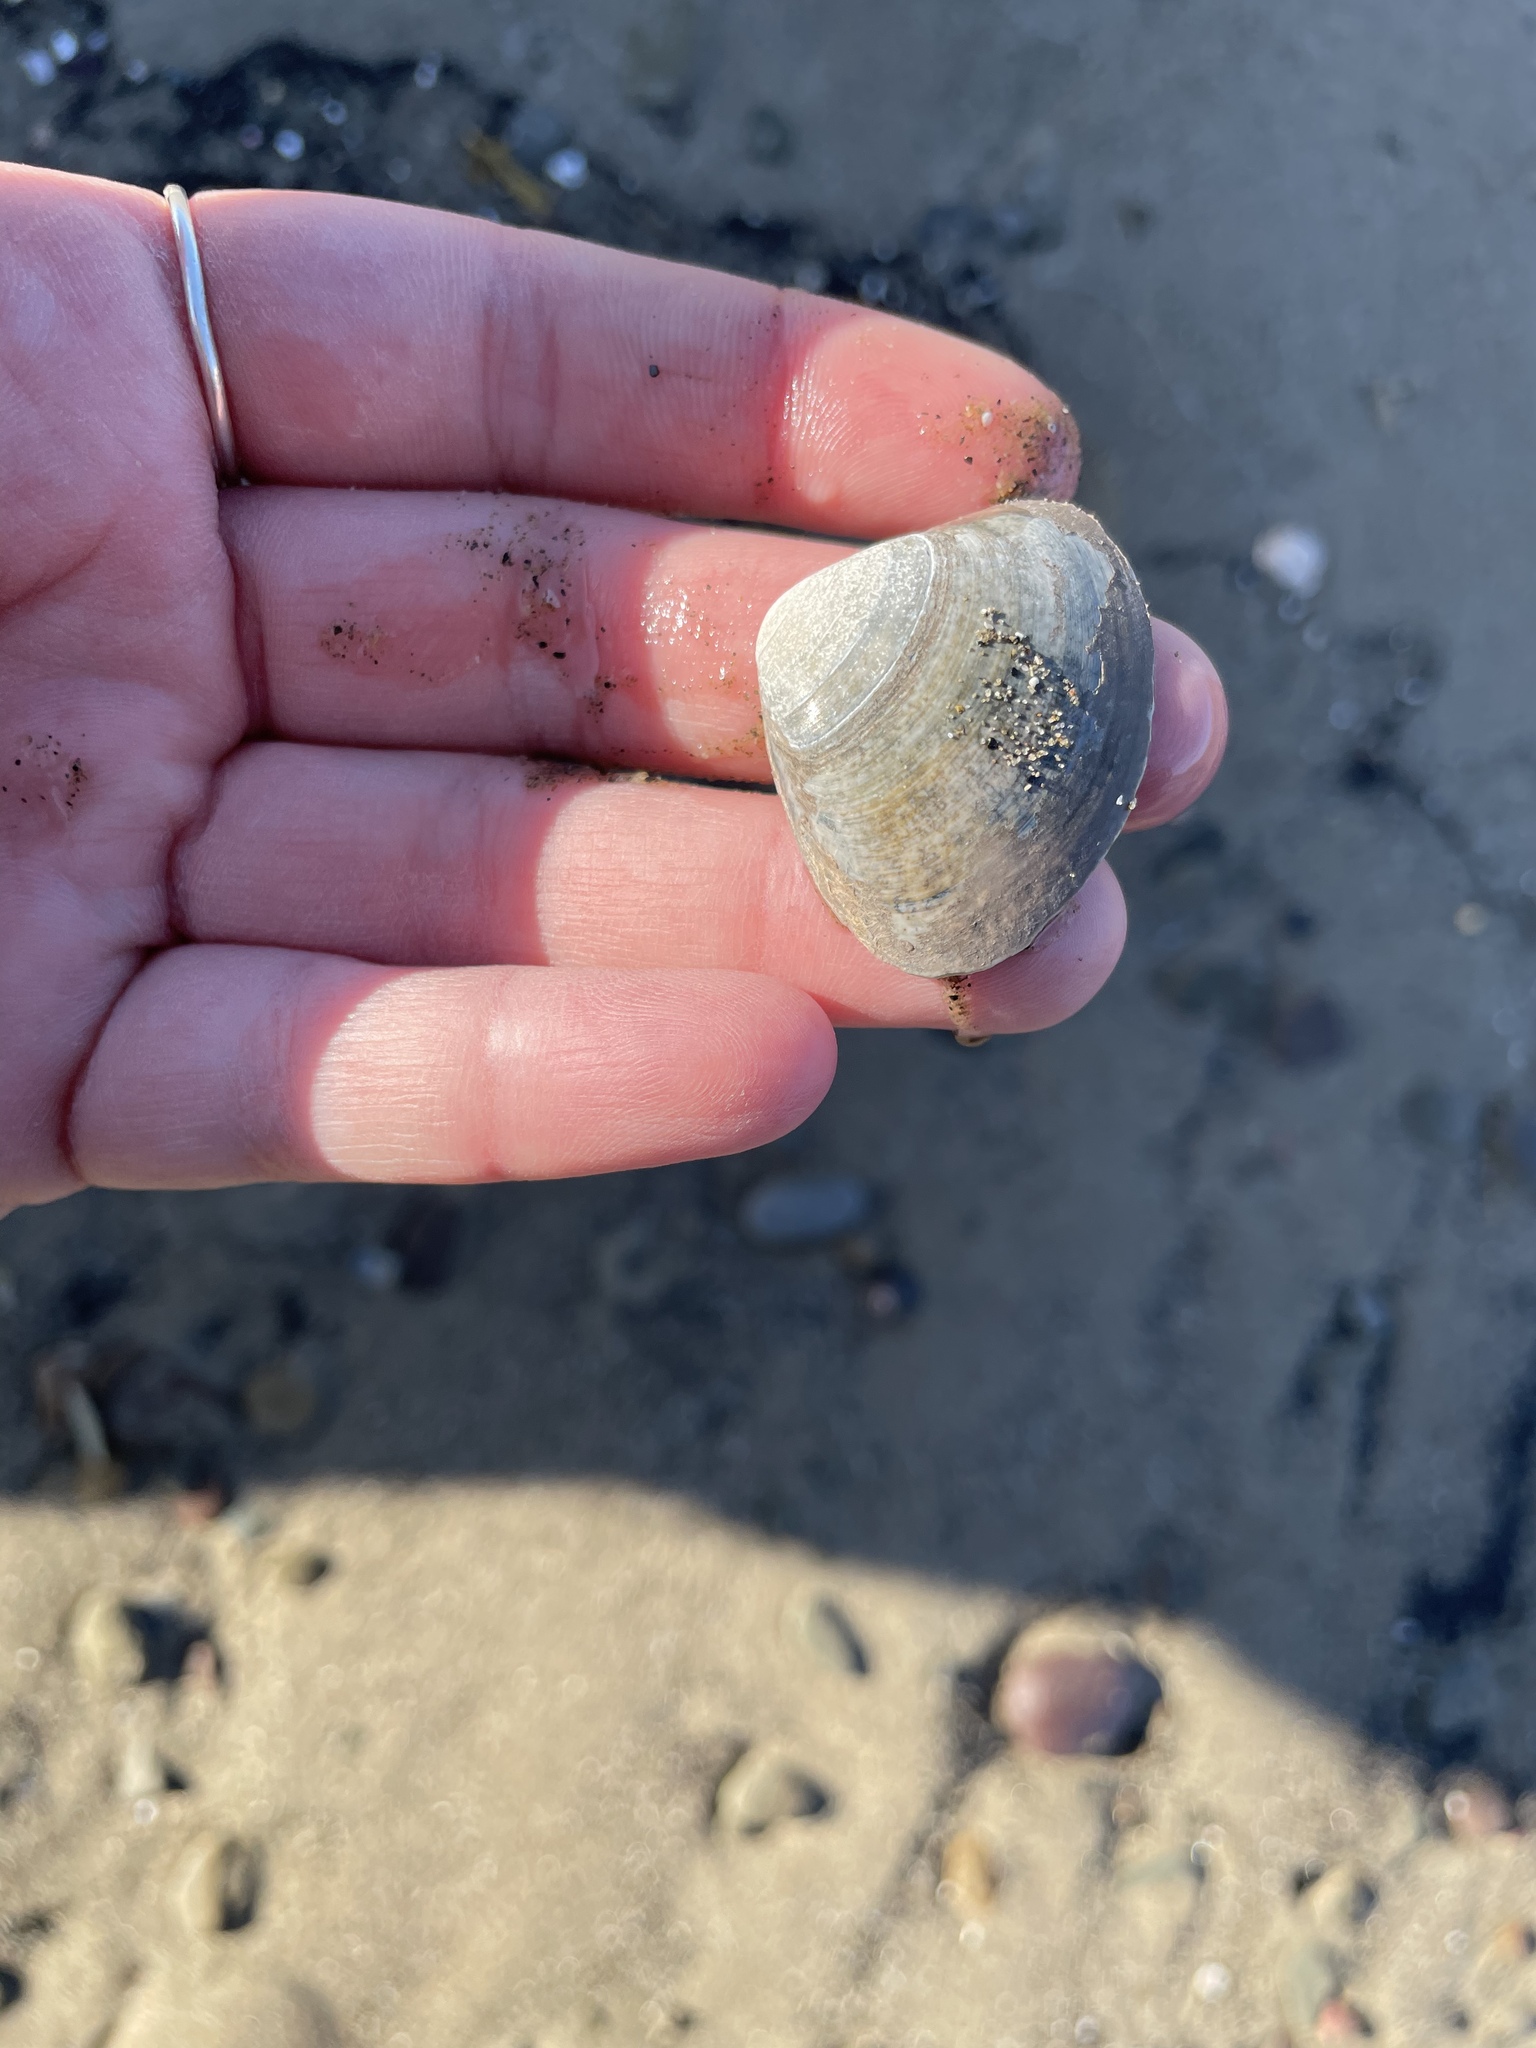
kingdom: Animalia
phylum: Mollusca
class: Bivalvia
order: Venerida
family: Mactridae
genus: Spisula
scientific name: Spisula solidissima
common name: Atlantic surf clam
